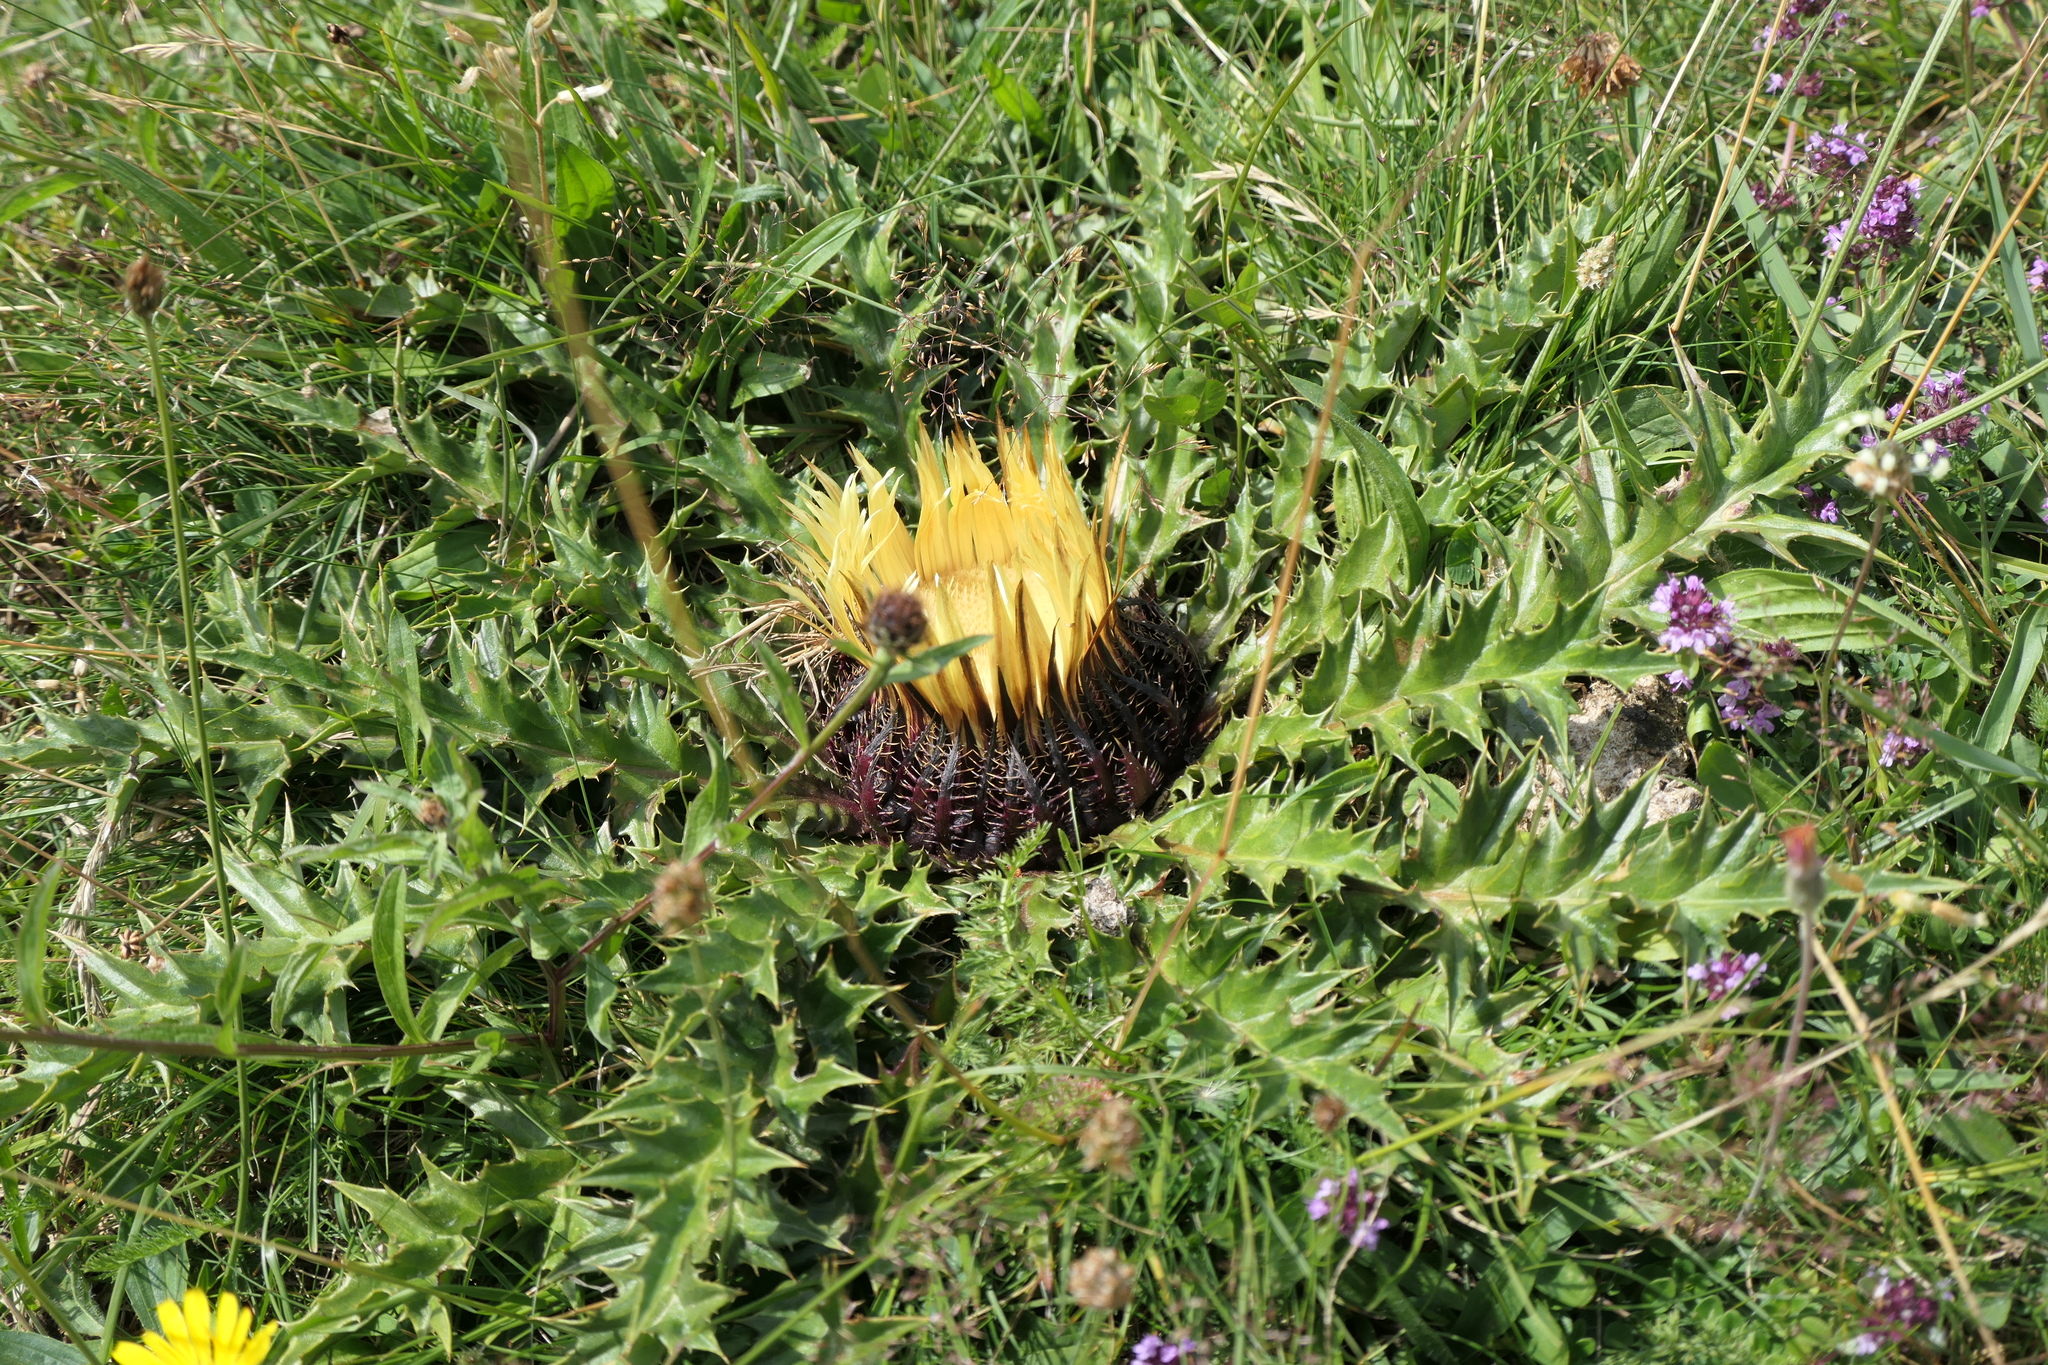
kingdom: Plantae
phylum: Tracheophyta
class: Magnoliopsida
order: Asterales
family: Asteraceae
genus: Carlina
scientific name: Carlina acanthifolia
